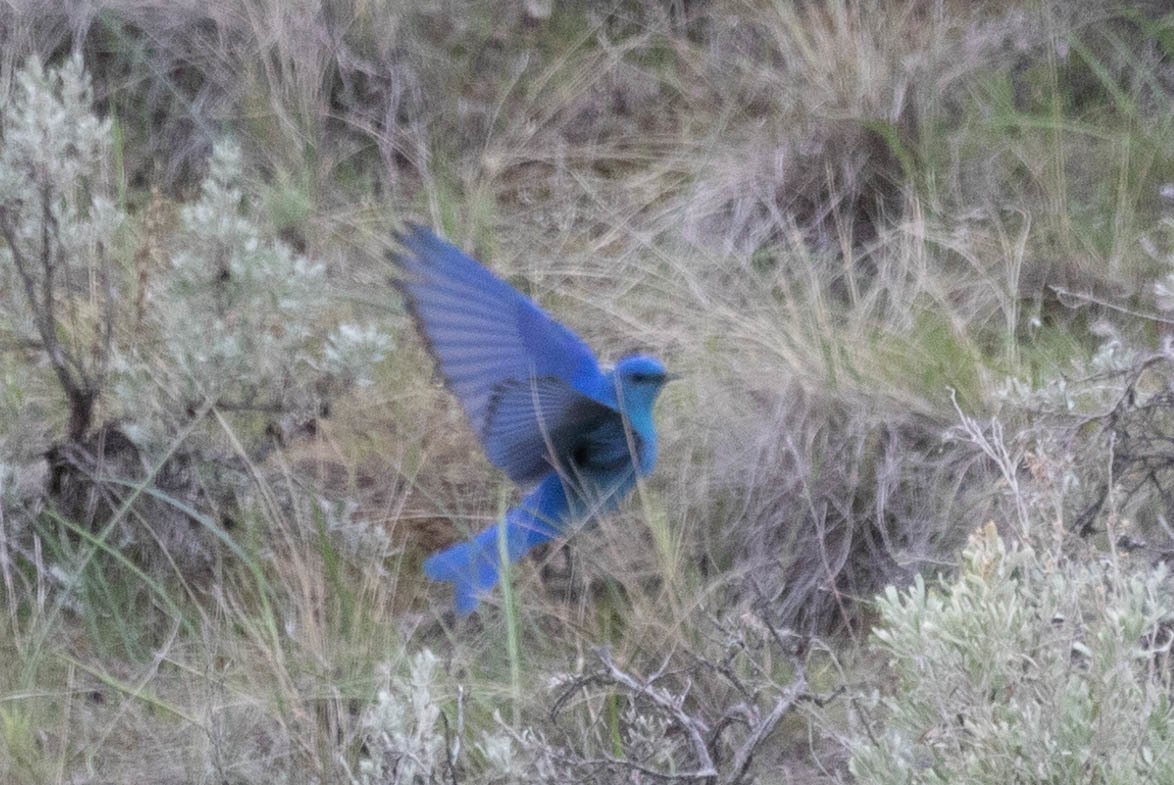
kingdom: Animalia
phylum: Chordata
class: Aves
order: Passeriformes
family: Turdidae
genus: Sialia
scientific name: Sialia currucoides
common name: Mountain bluebird
